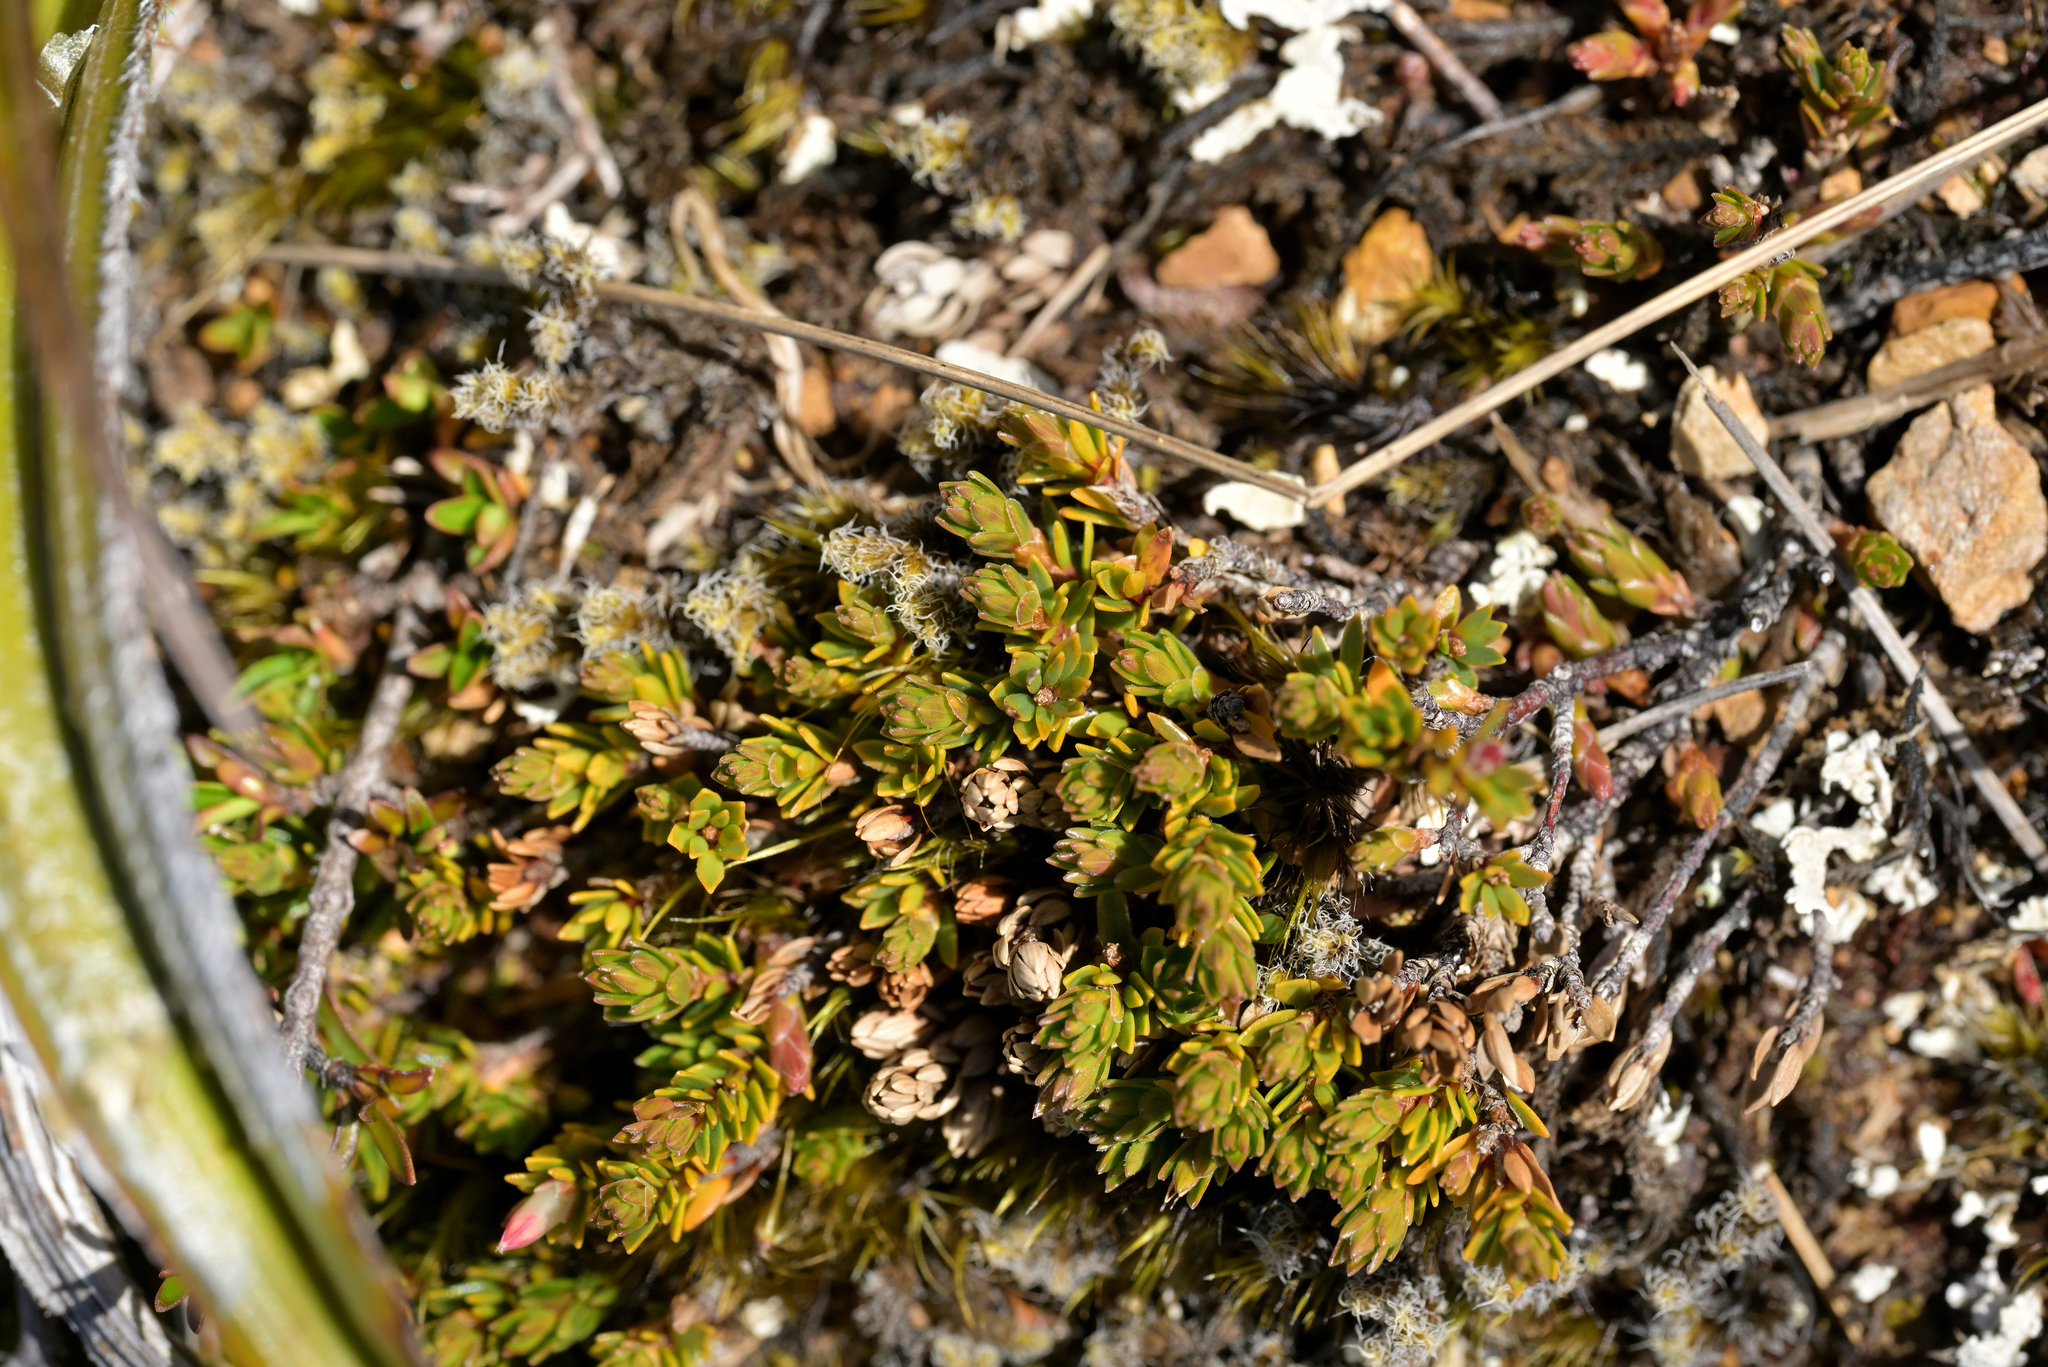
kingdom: Plantae
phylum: Tracheophyta
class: Magnoliopsida
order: Ericales
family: Ericaceae
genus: Pentachondra
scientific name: Pentachondra pumila
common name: Carpet-heath
